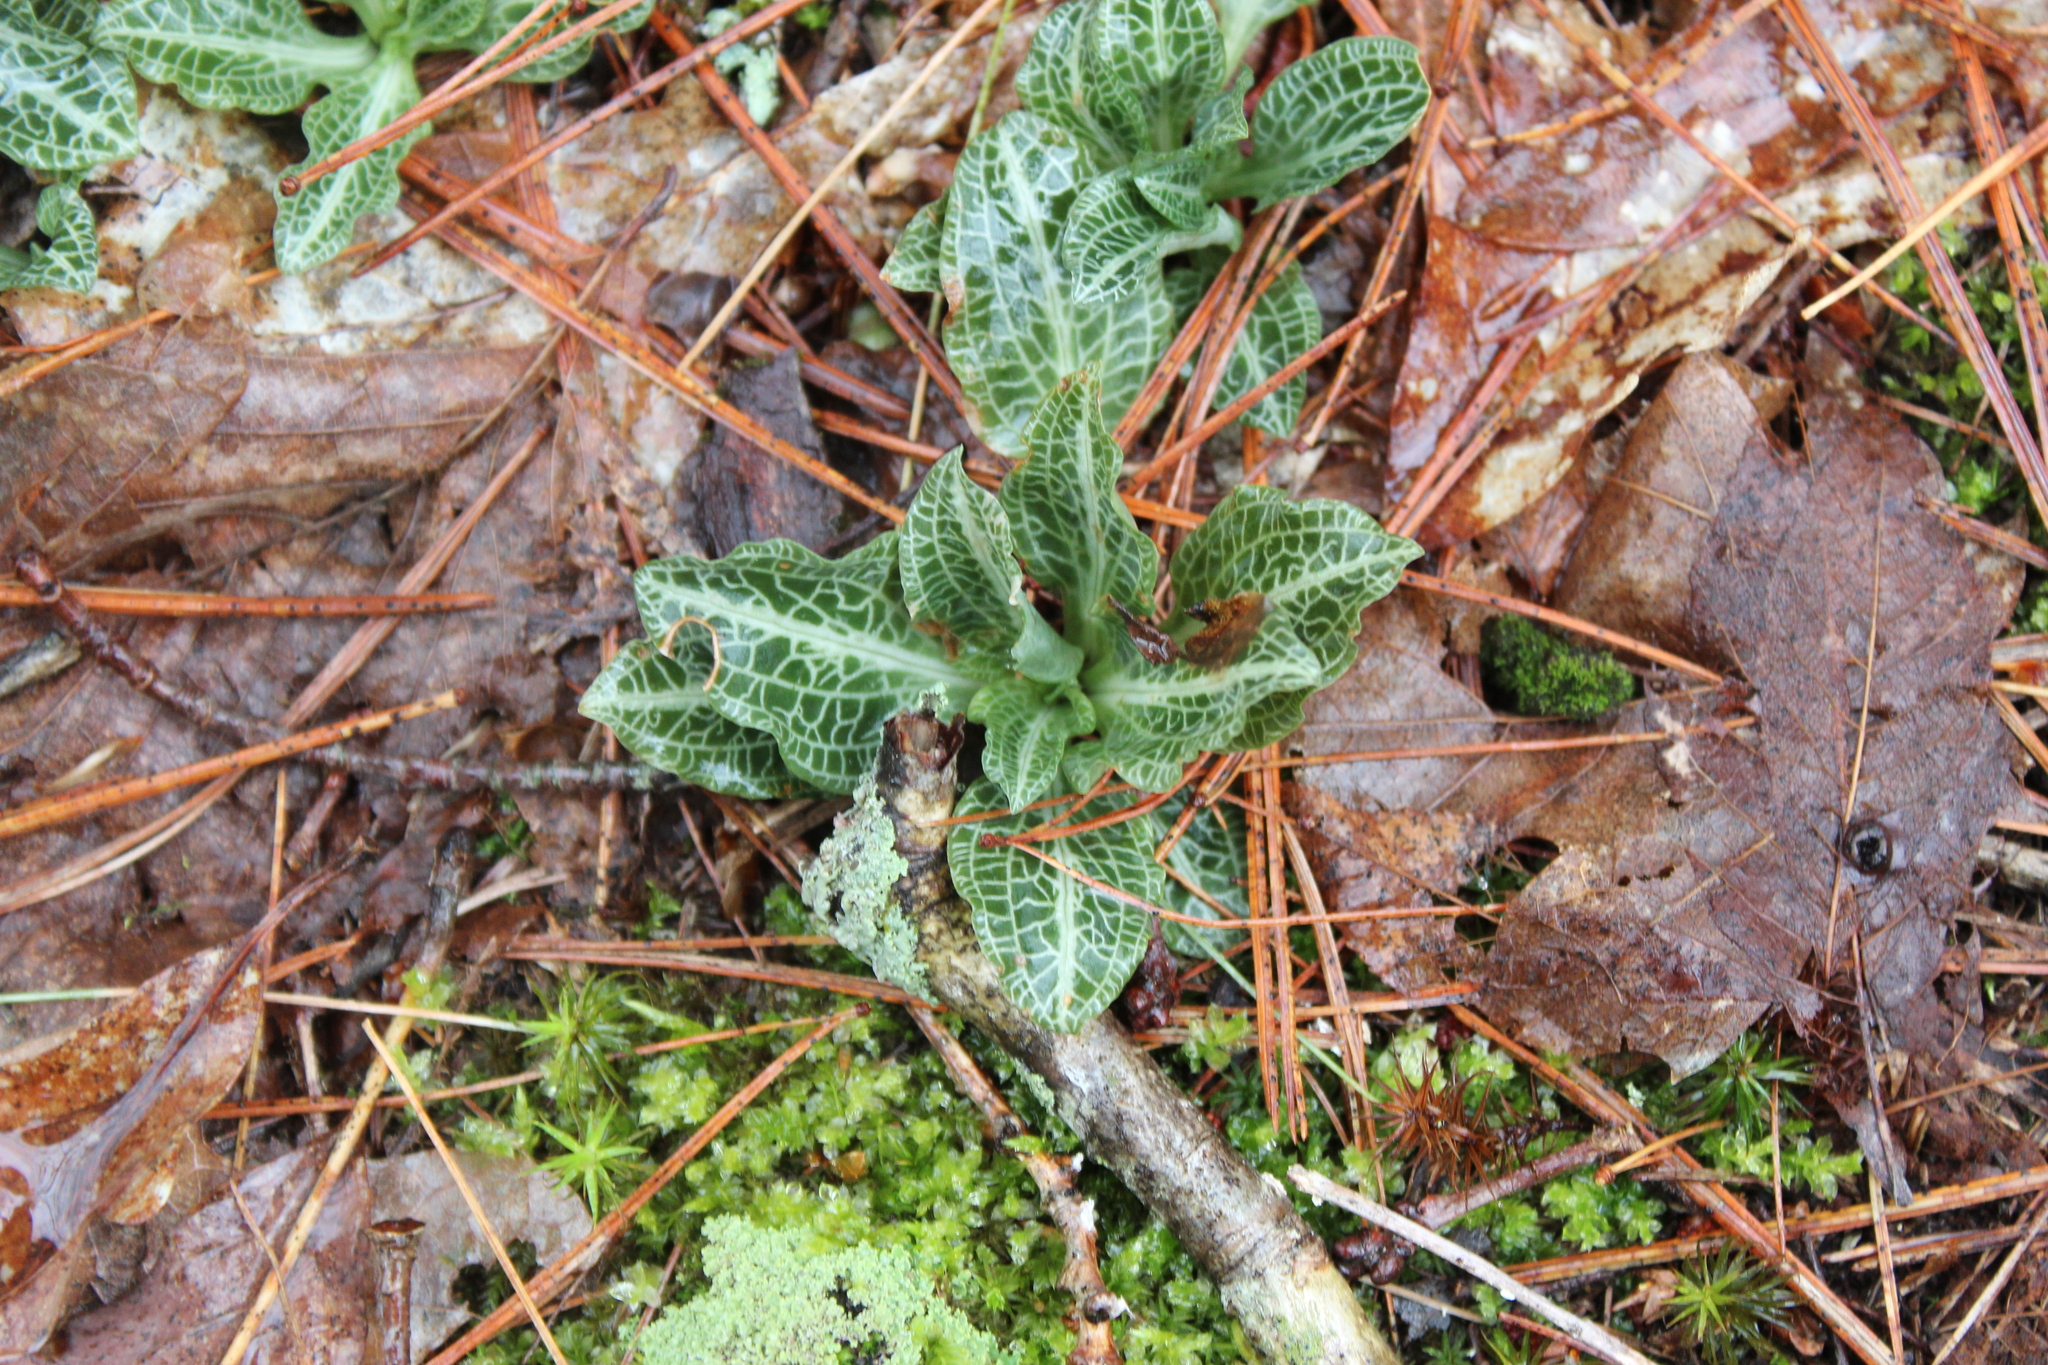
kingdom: Plantae
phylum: Tracheophyta
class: Liliopsida
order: Asparagales
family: Orchidaceae
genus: Goodyera
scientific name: Goodyera pubescens
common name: Downy rattlesnake-plantain
